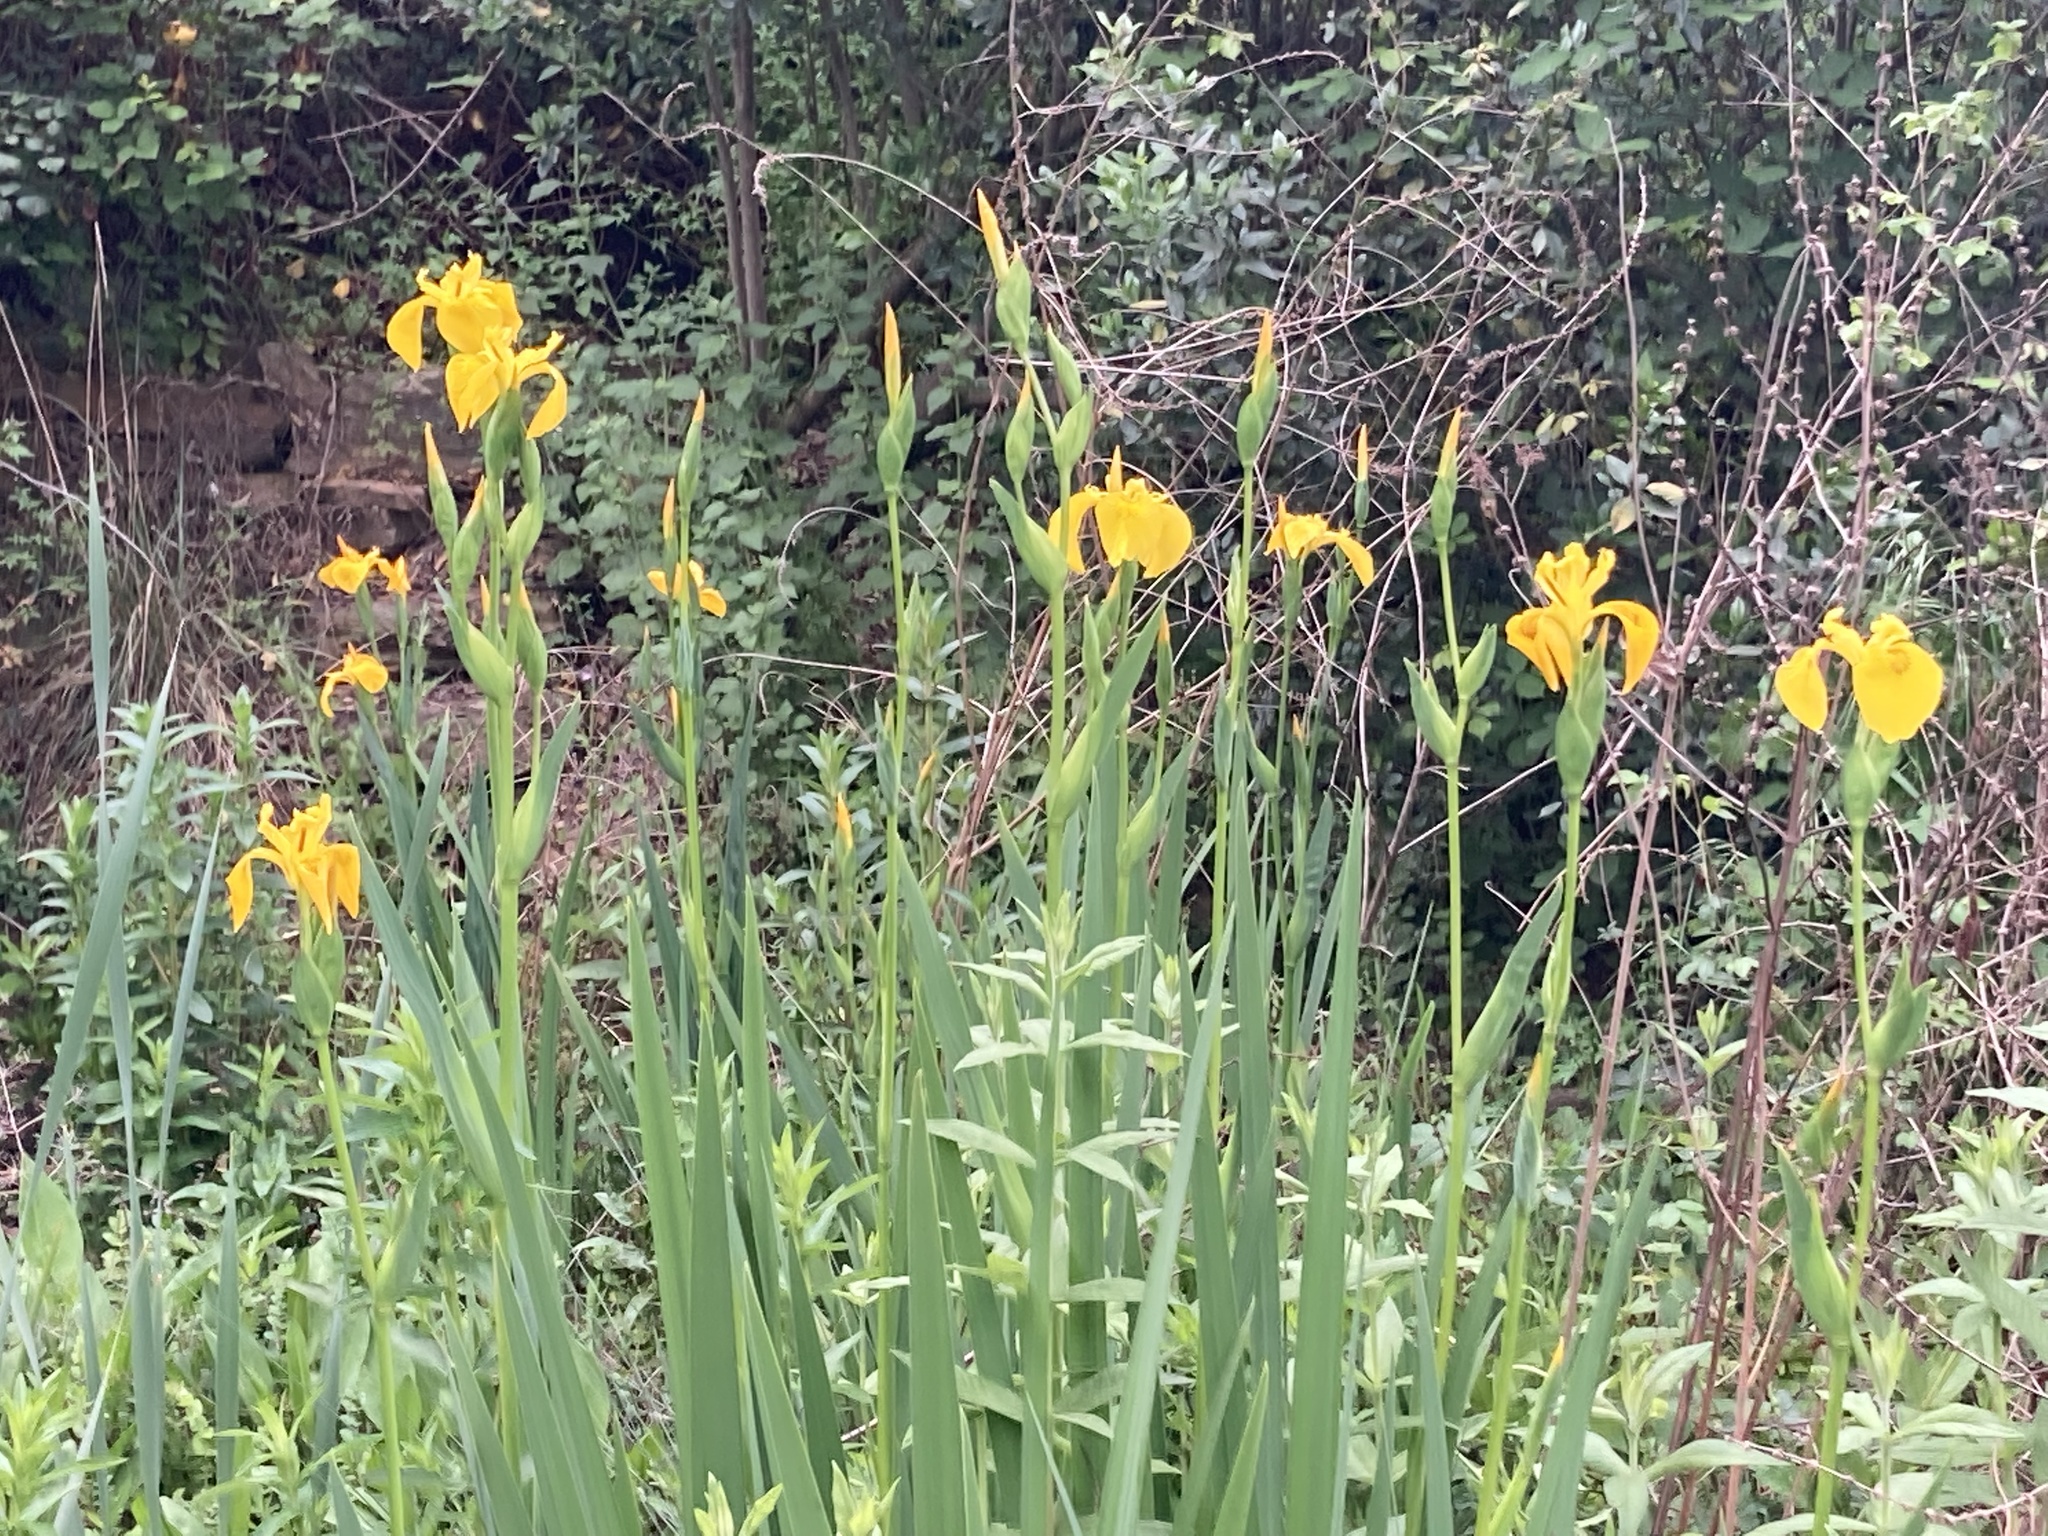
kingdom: Plantae
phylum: Tracheophyta
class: Liliopsida
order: Asparagales
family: Iridaceae
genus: Iris
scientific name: Iris pseudacorus
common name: Yellow flag
